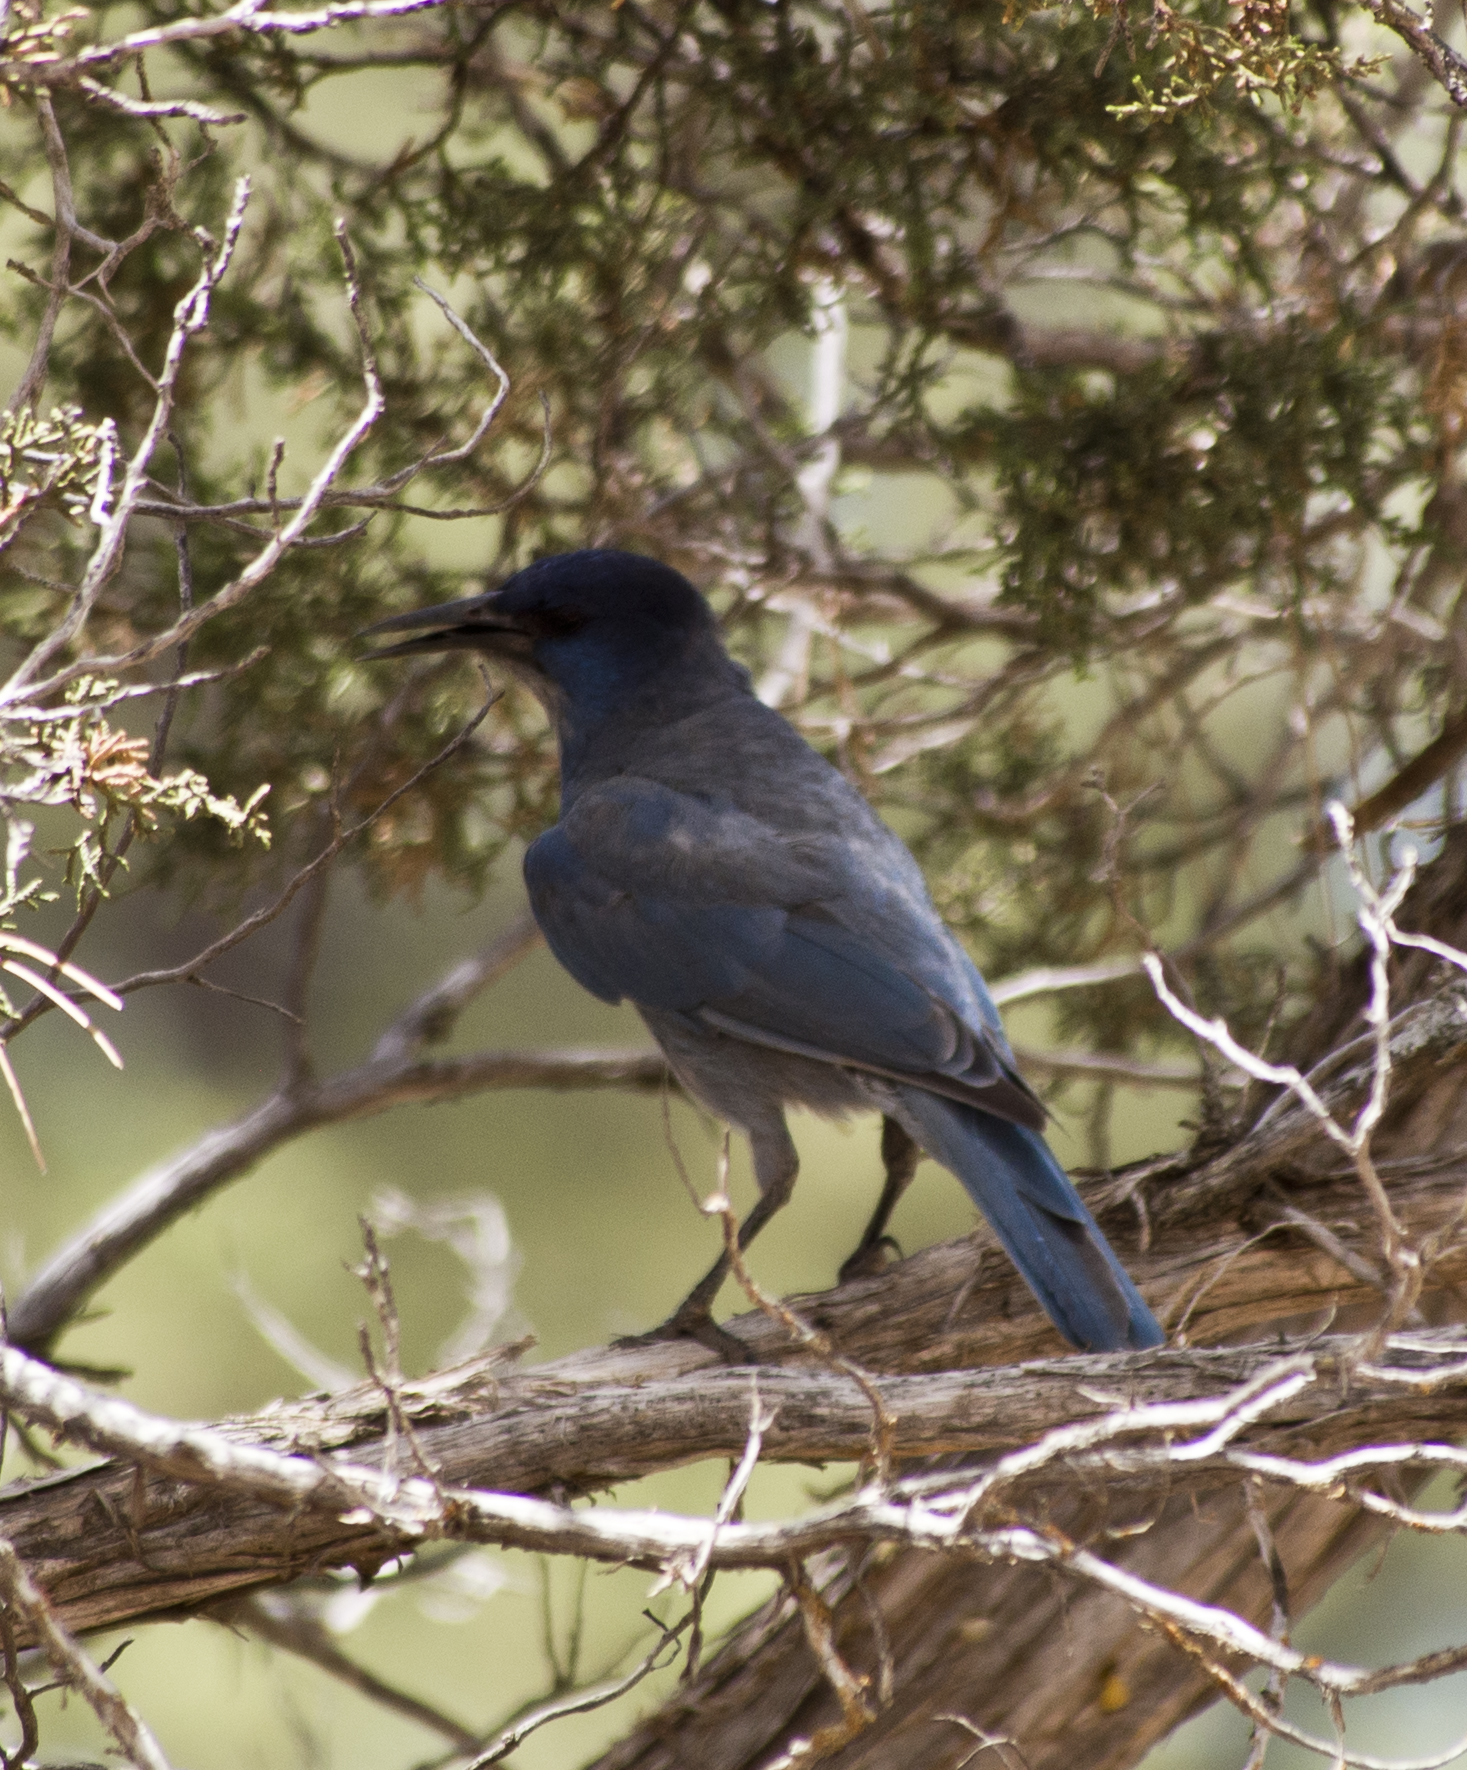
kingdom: Animalia
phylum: Chordata
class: Aves
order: Passeriformes
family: Corvidae
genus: Gymnorhinus
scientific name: Gymnorhinus cyanocephalus
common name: Pinyon jay
